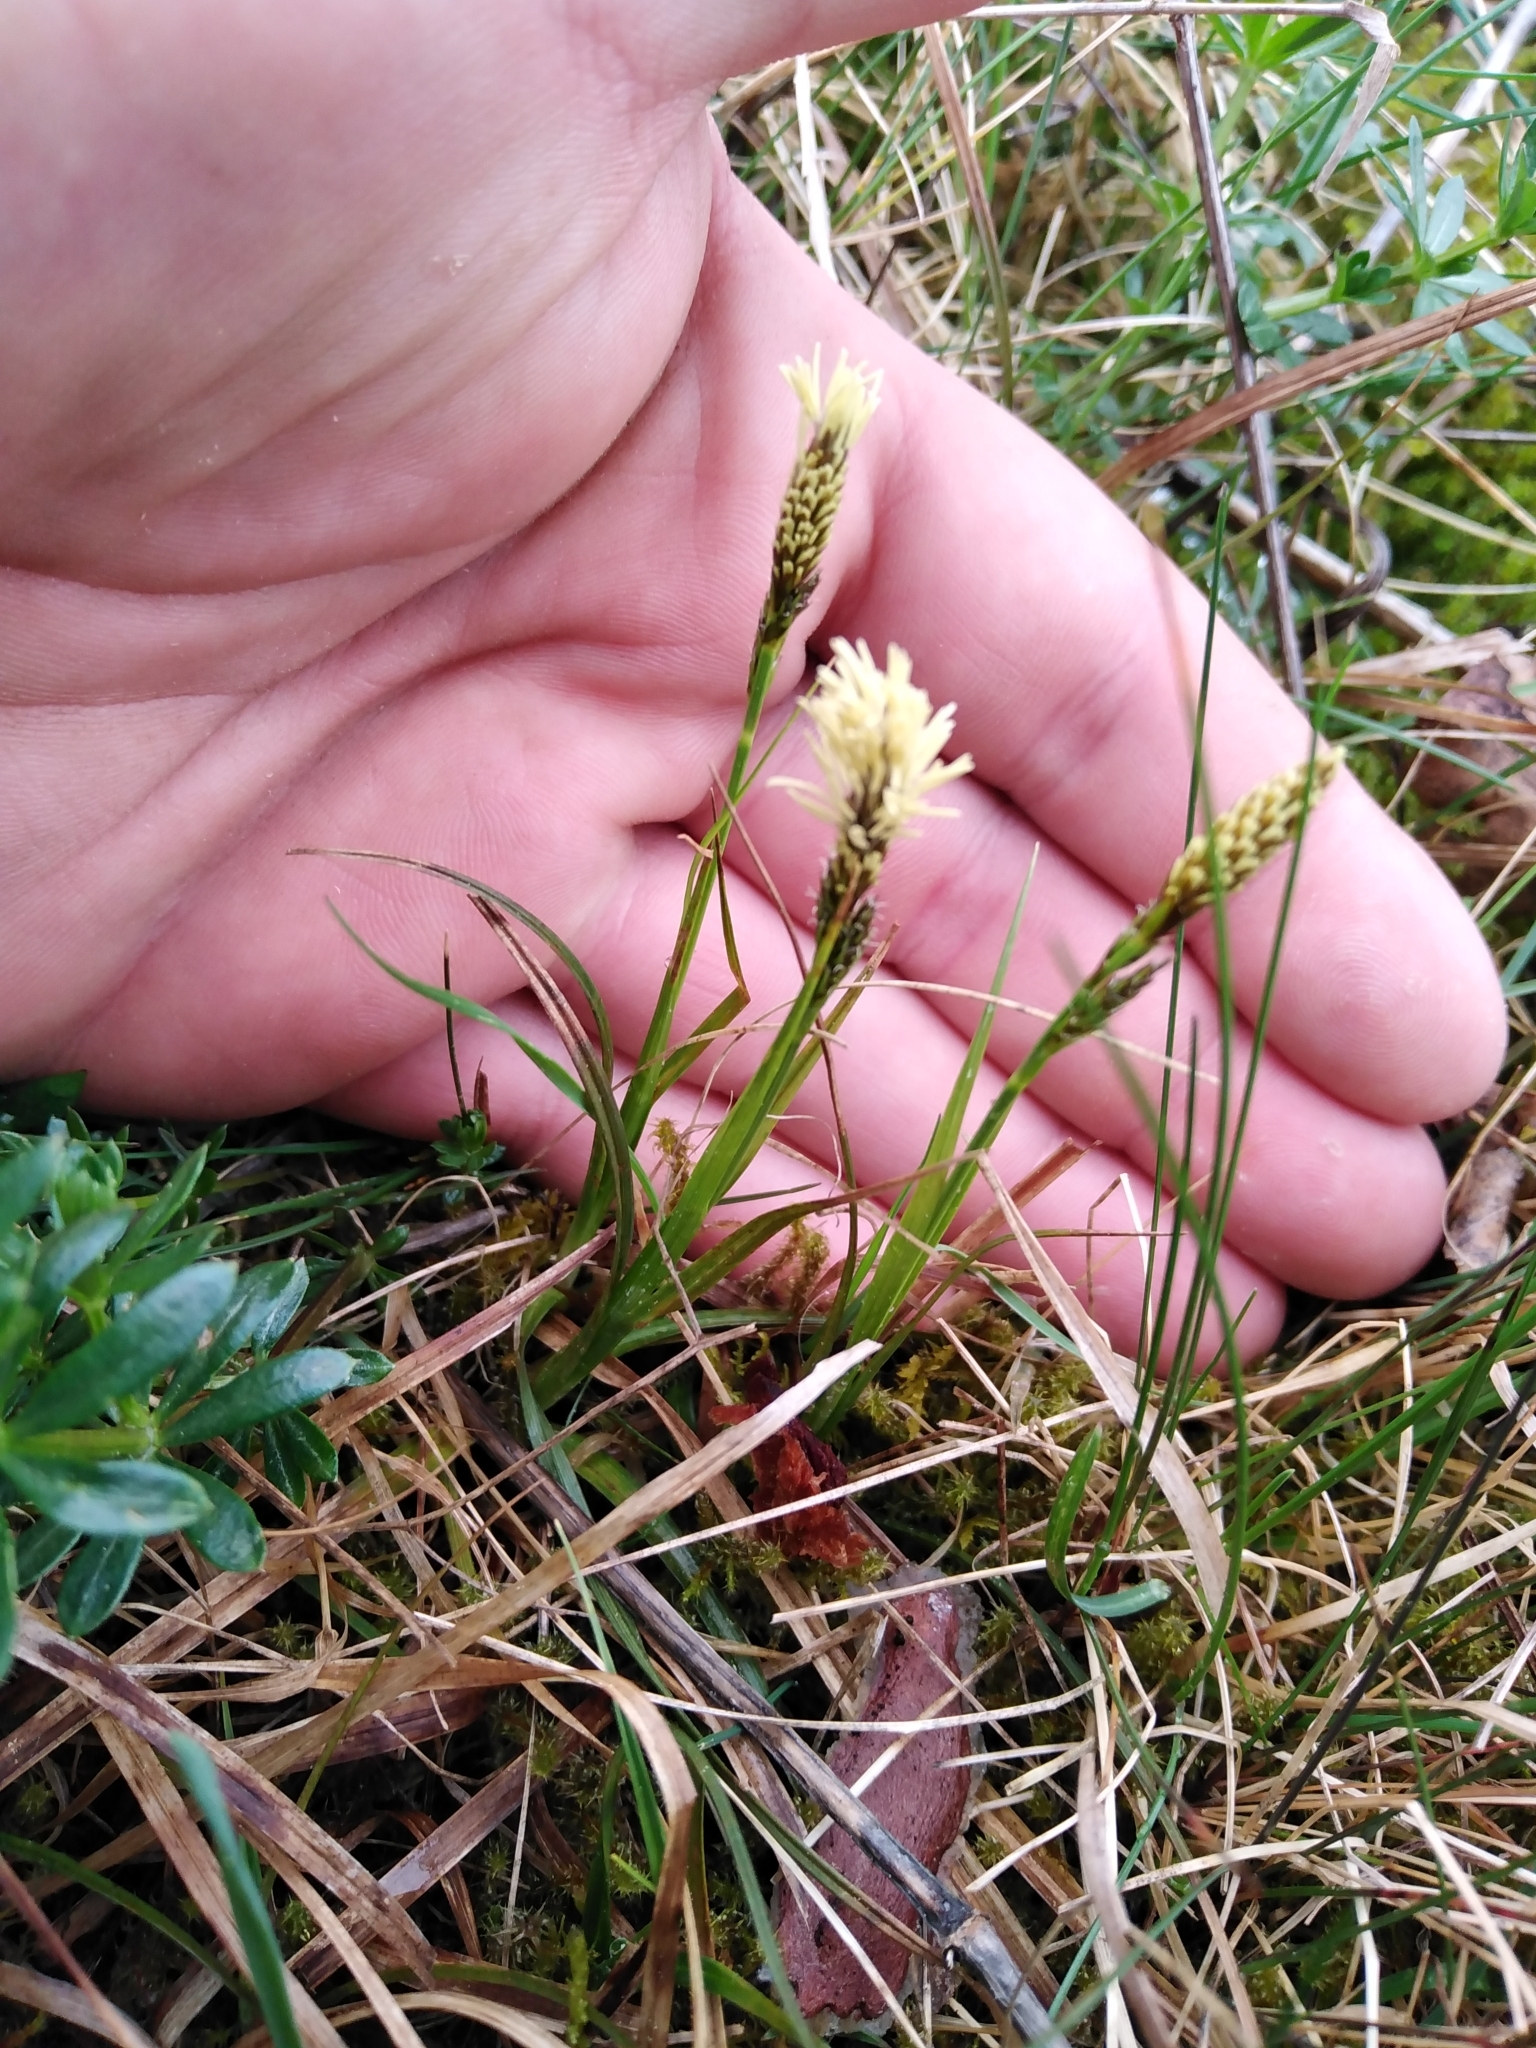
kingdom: Plantae
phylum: Tracheophyta
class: Liliopsida
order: Poales
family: Cyperaceae
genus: Carex
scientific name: Carex caryophyllea
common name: Spring sedge
